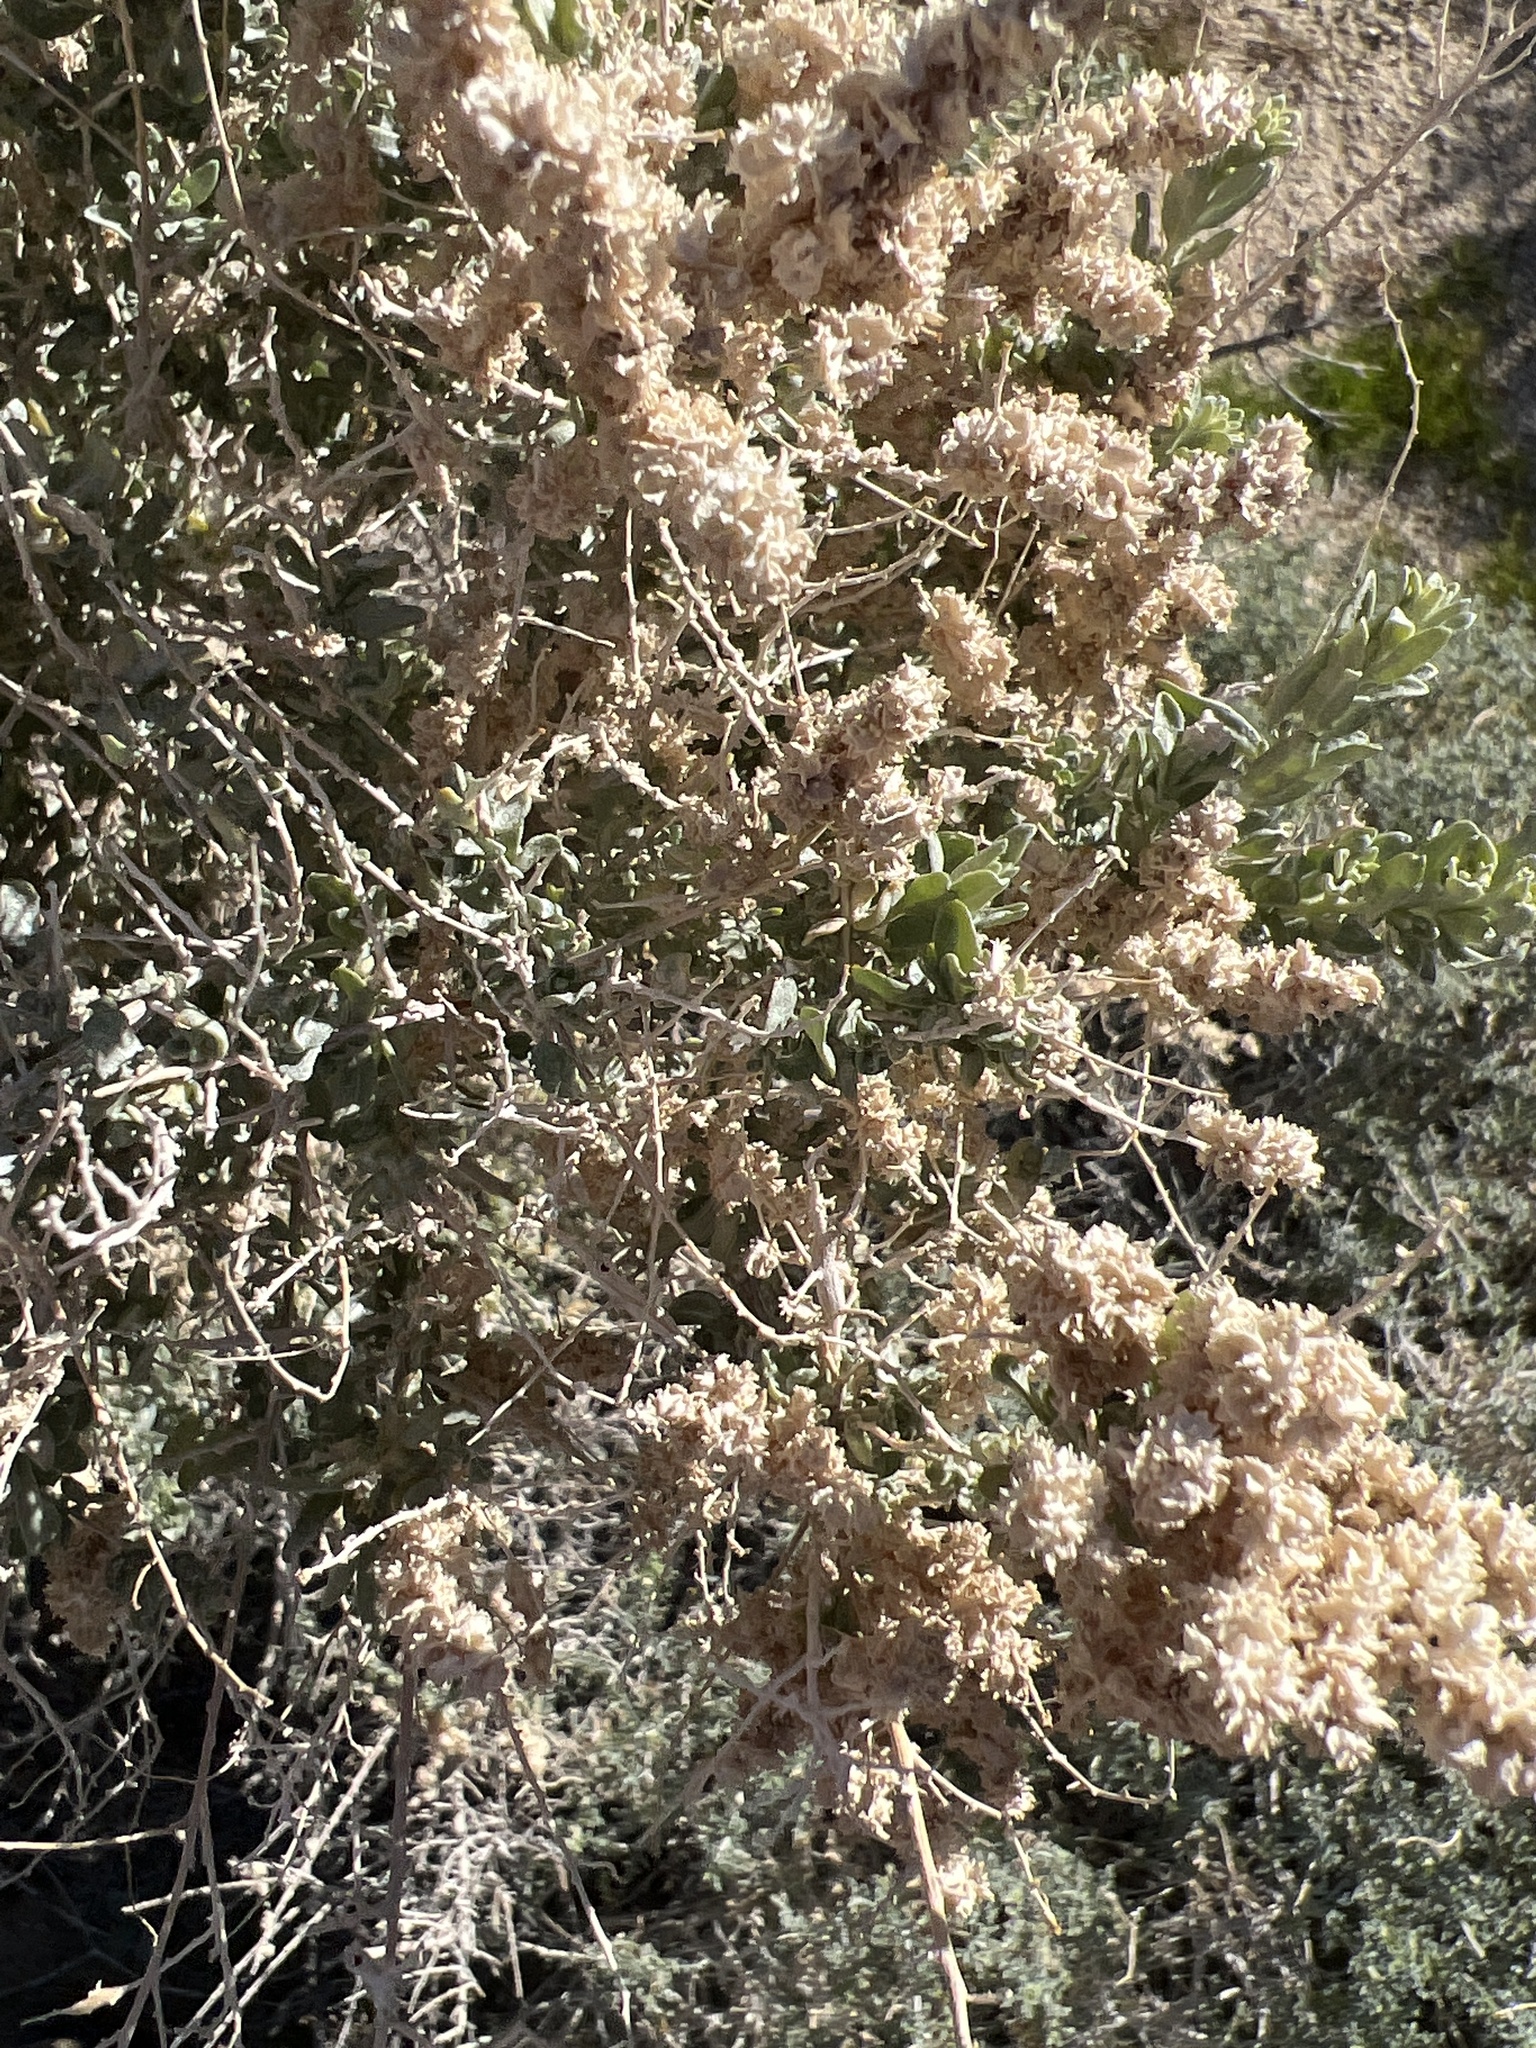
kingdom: Plantae
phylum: Tracheophyta
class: Magnoliopsida
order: Caryophyllales
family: Amaranthaceae
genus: Atriplex
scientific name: Atriplex canescens
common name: Four-wing saltbush
